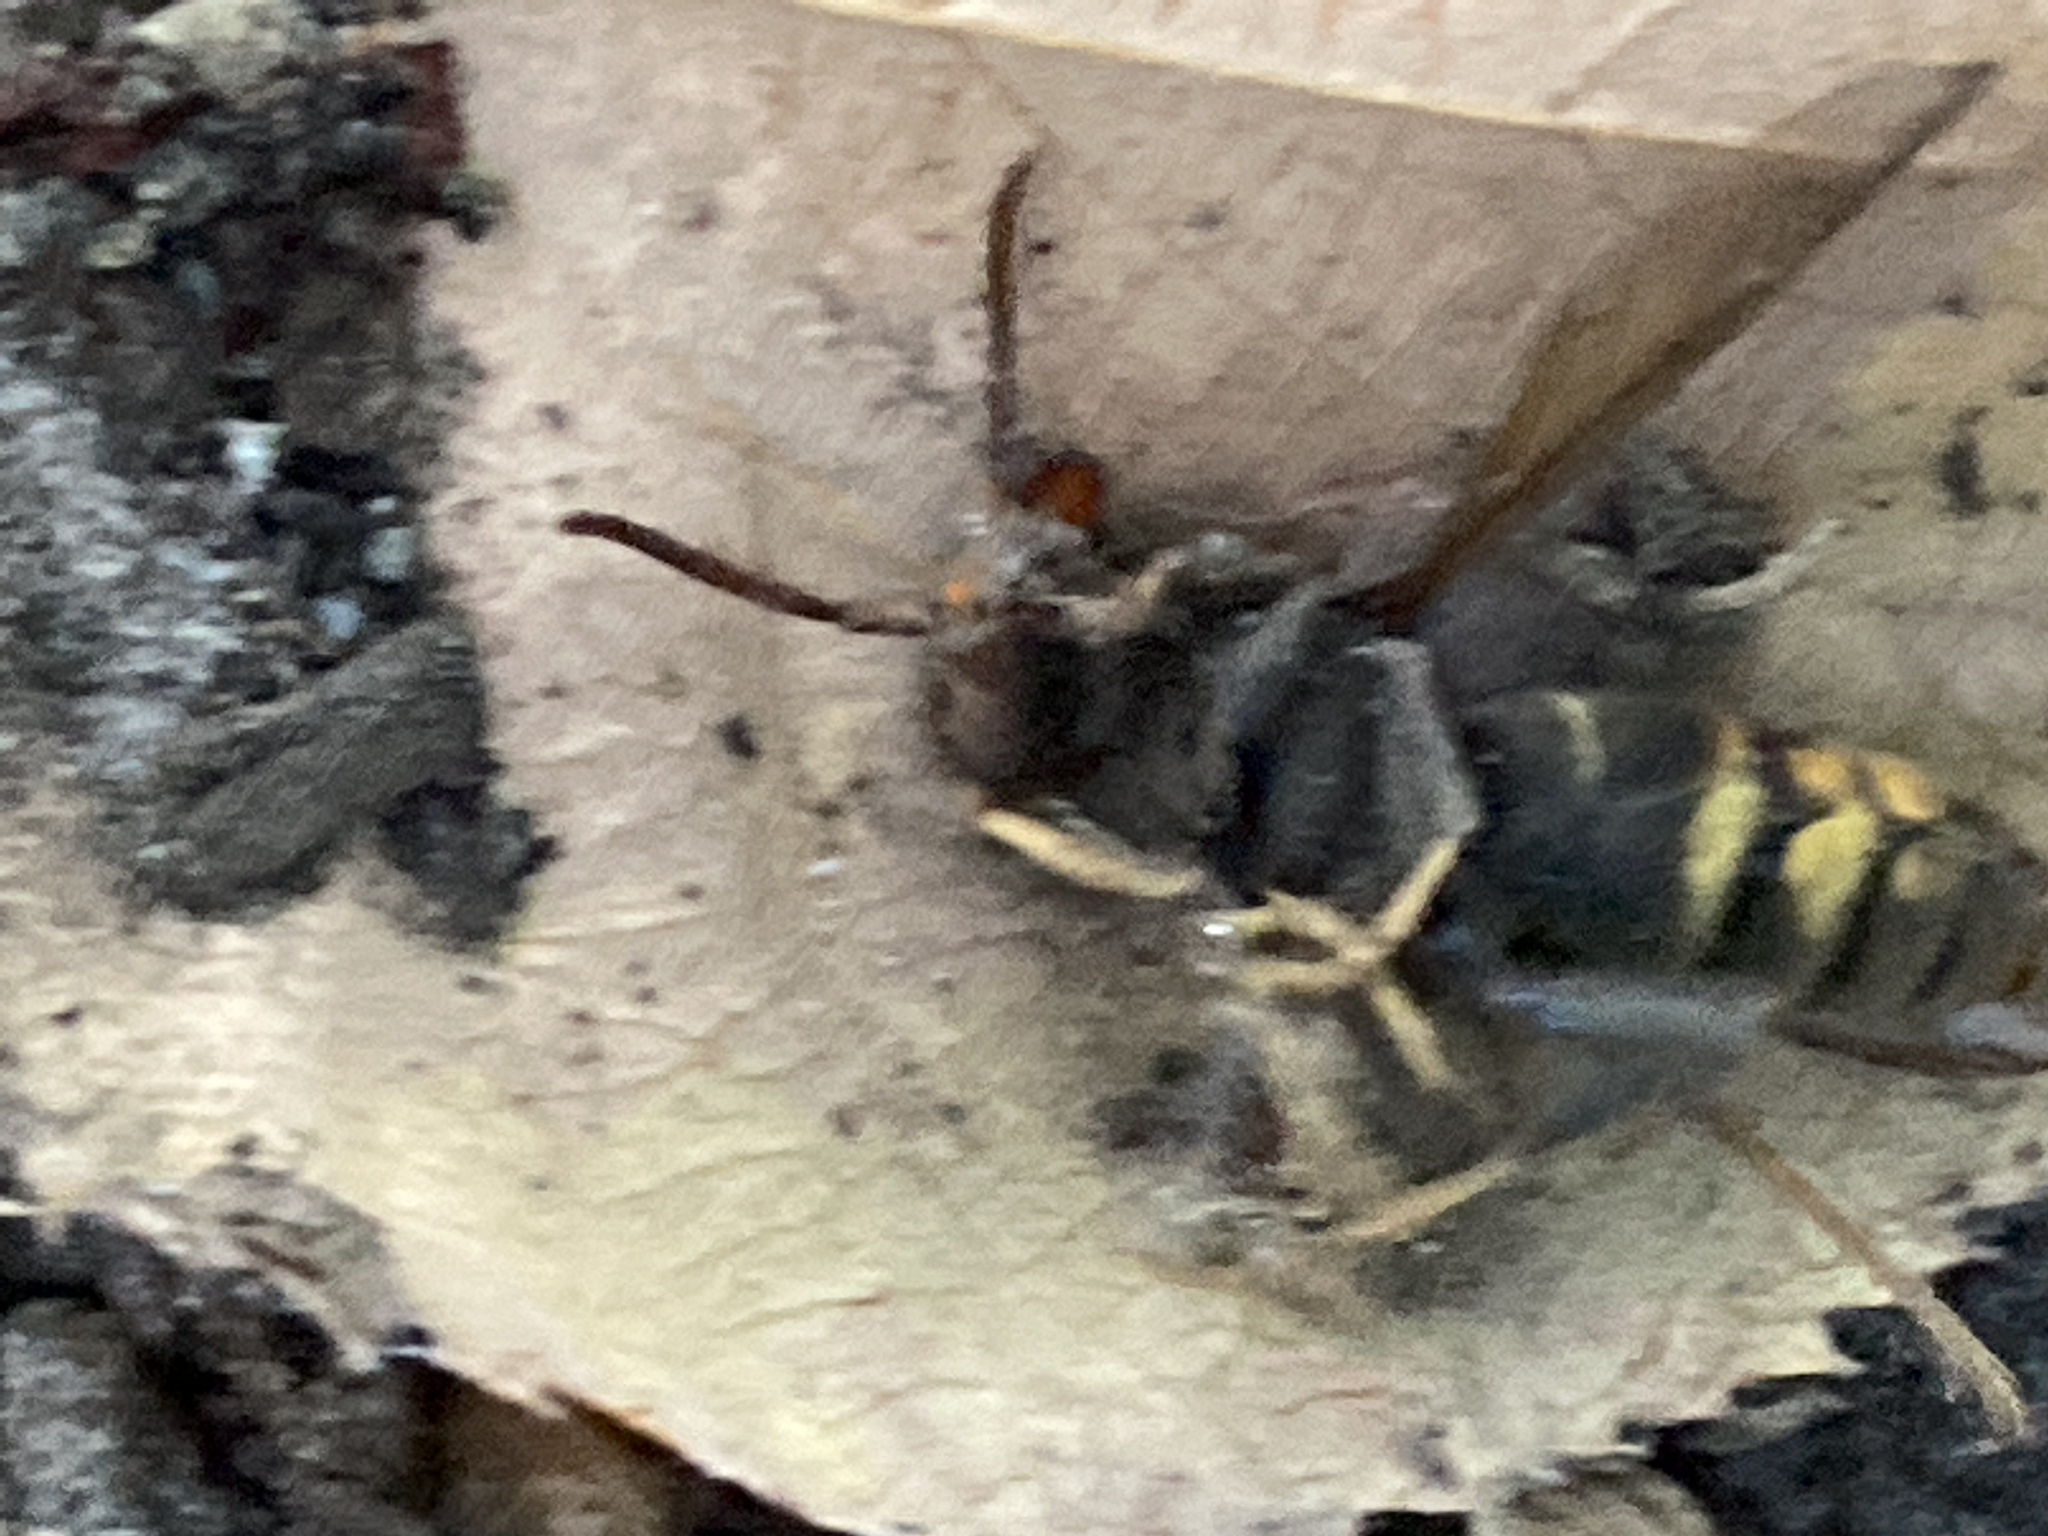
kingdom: Animalia
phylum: Arthropoda
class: Insecta
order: Hymenoptera
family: Vespidae
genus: Vespa
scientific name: Vespa velutina
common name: Asian hornet
